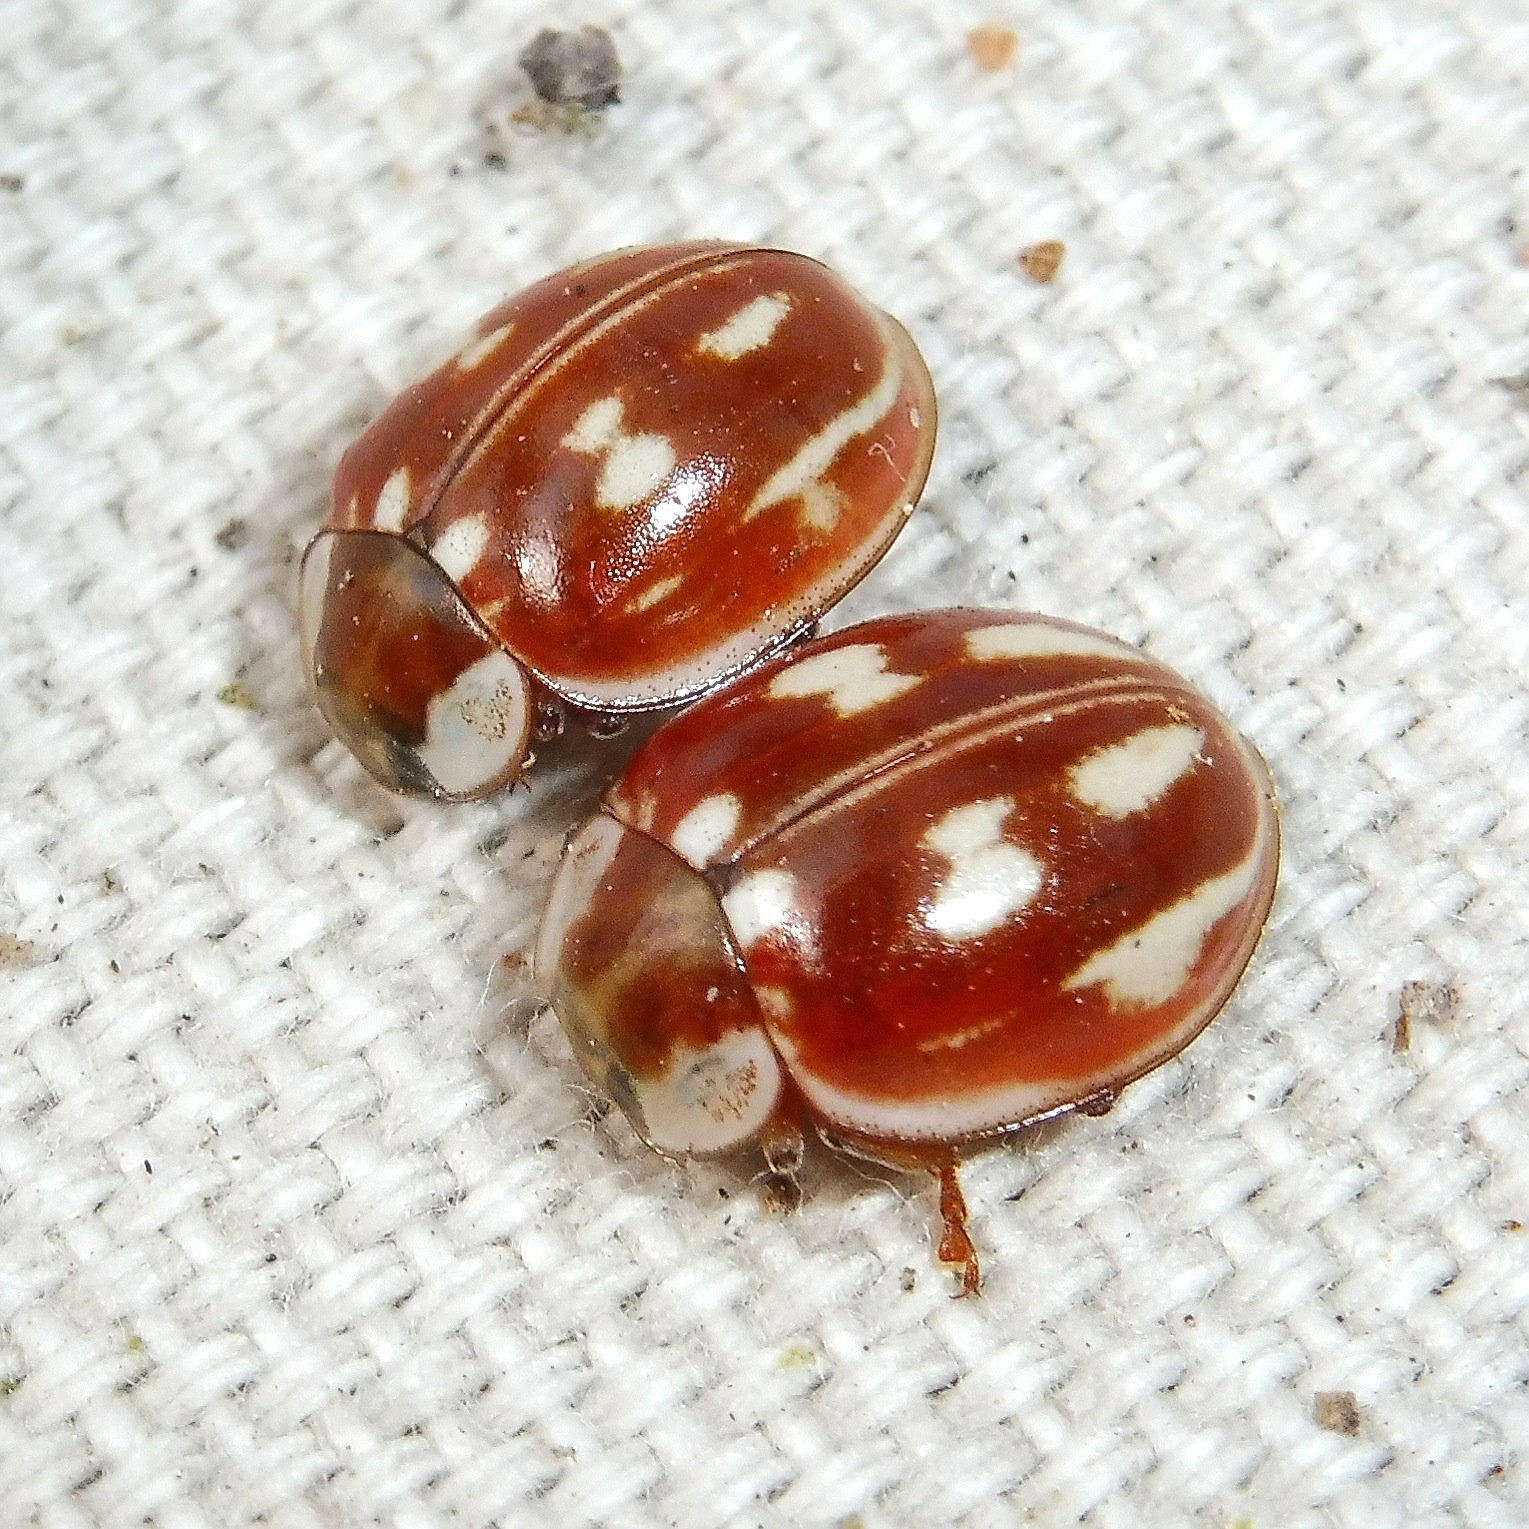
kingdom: Animalia
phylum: Arthropoda
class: Insecta
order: Coleoptera
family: Coccinellidae
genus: Myzia
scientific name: Myzia oblongoguttata
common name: Striped ladybird
